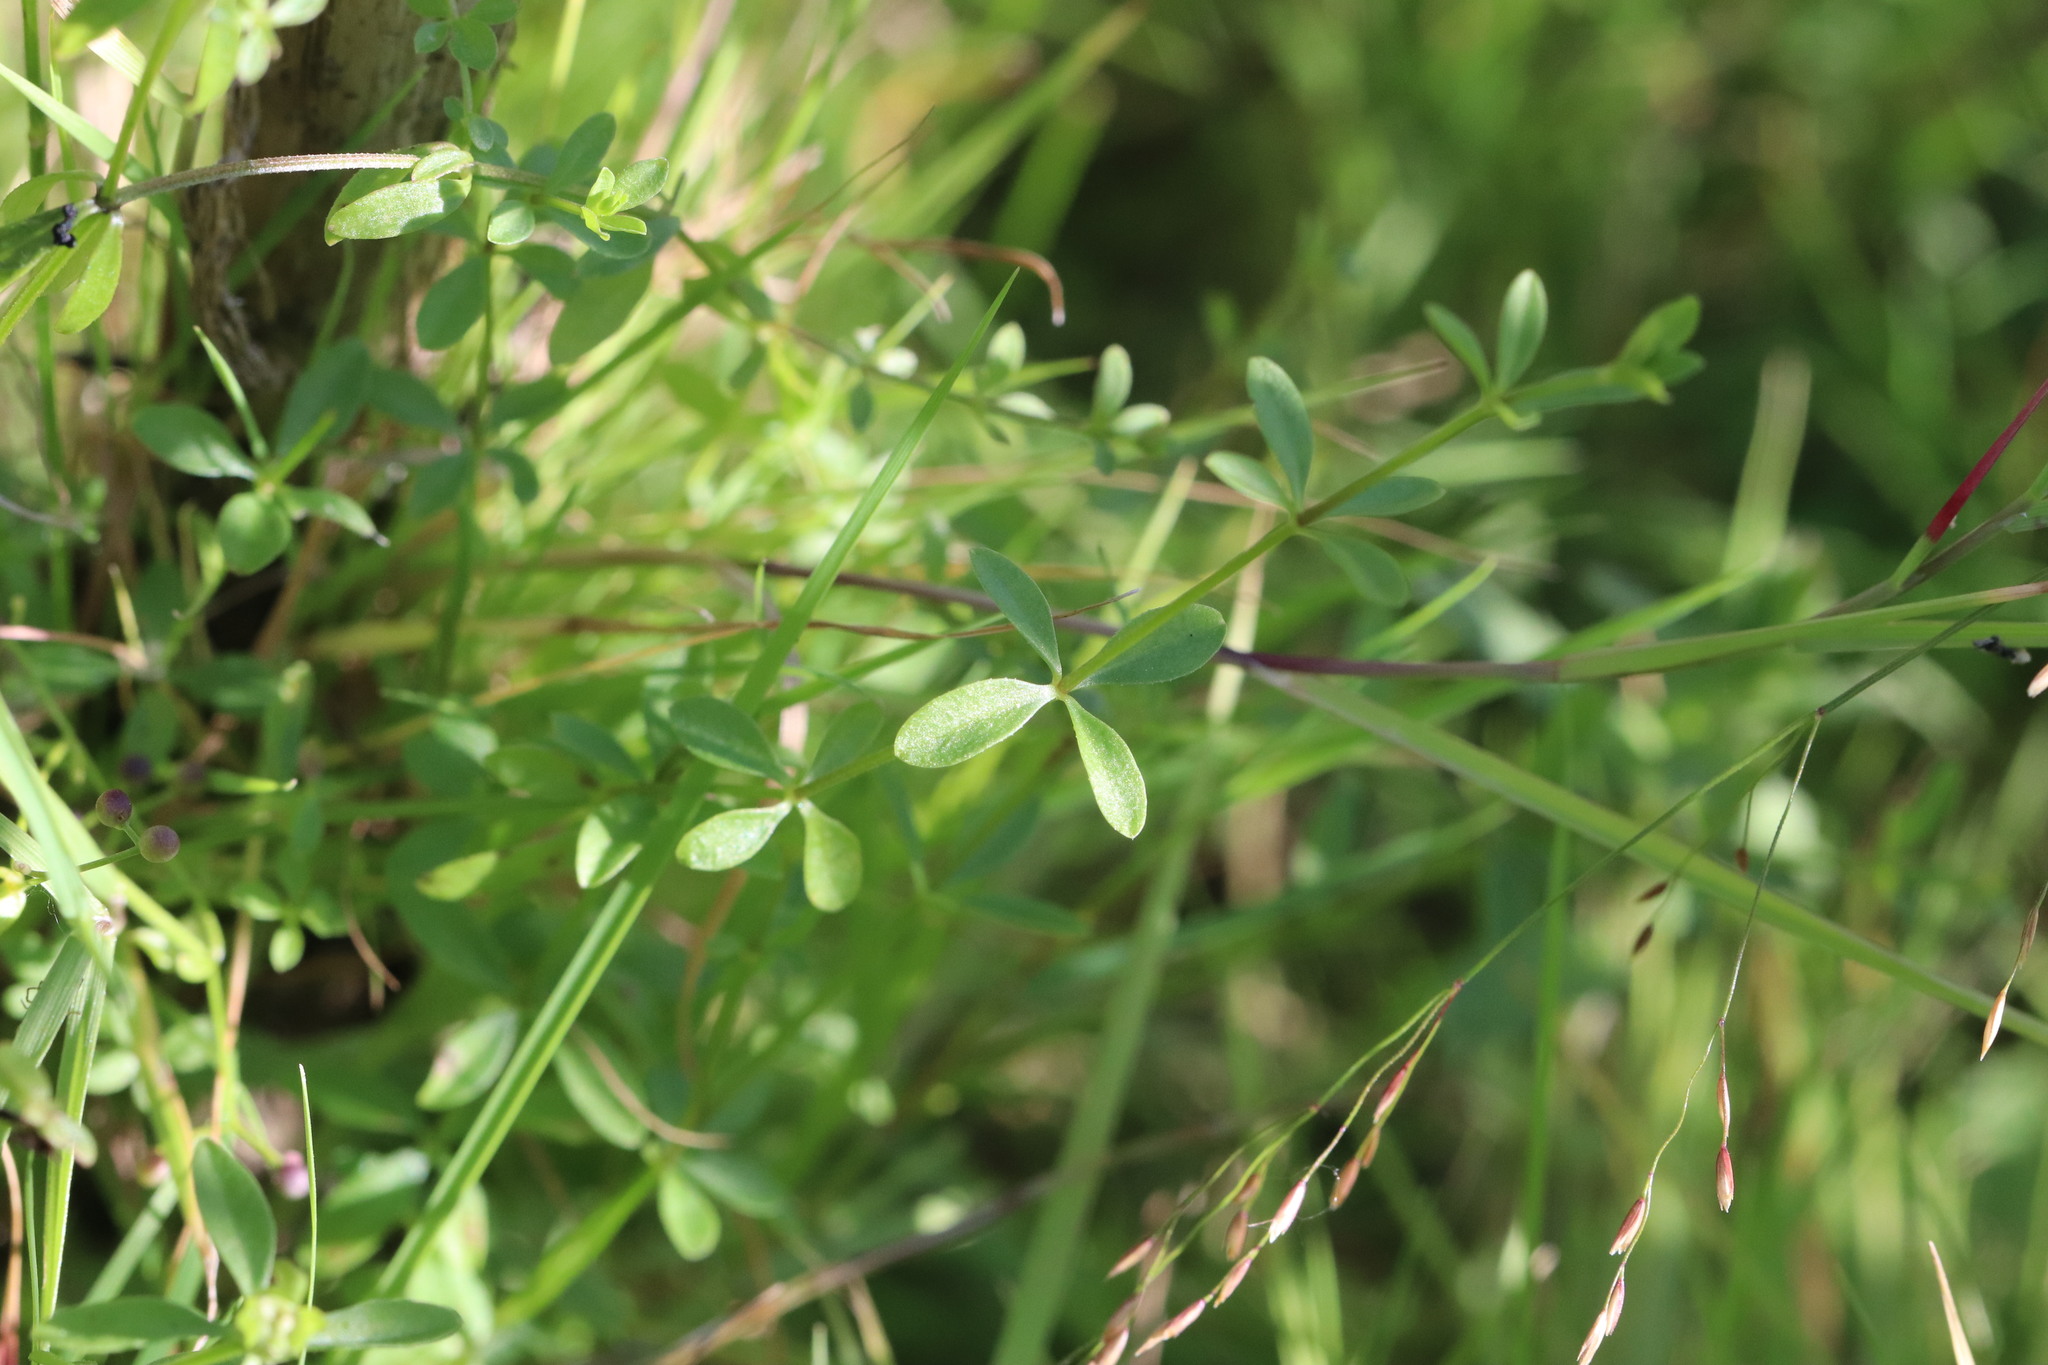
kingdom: Plantae
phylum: Tracheophyta
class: Magnoliopsida
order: Gentianales
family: Rubiaceae
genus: Galium
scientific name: Galium palustre
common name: Common marsh-bedstraw
